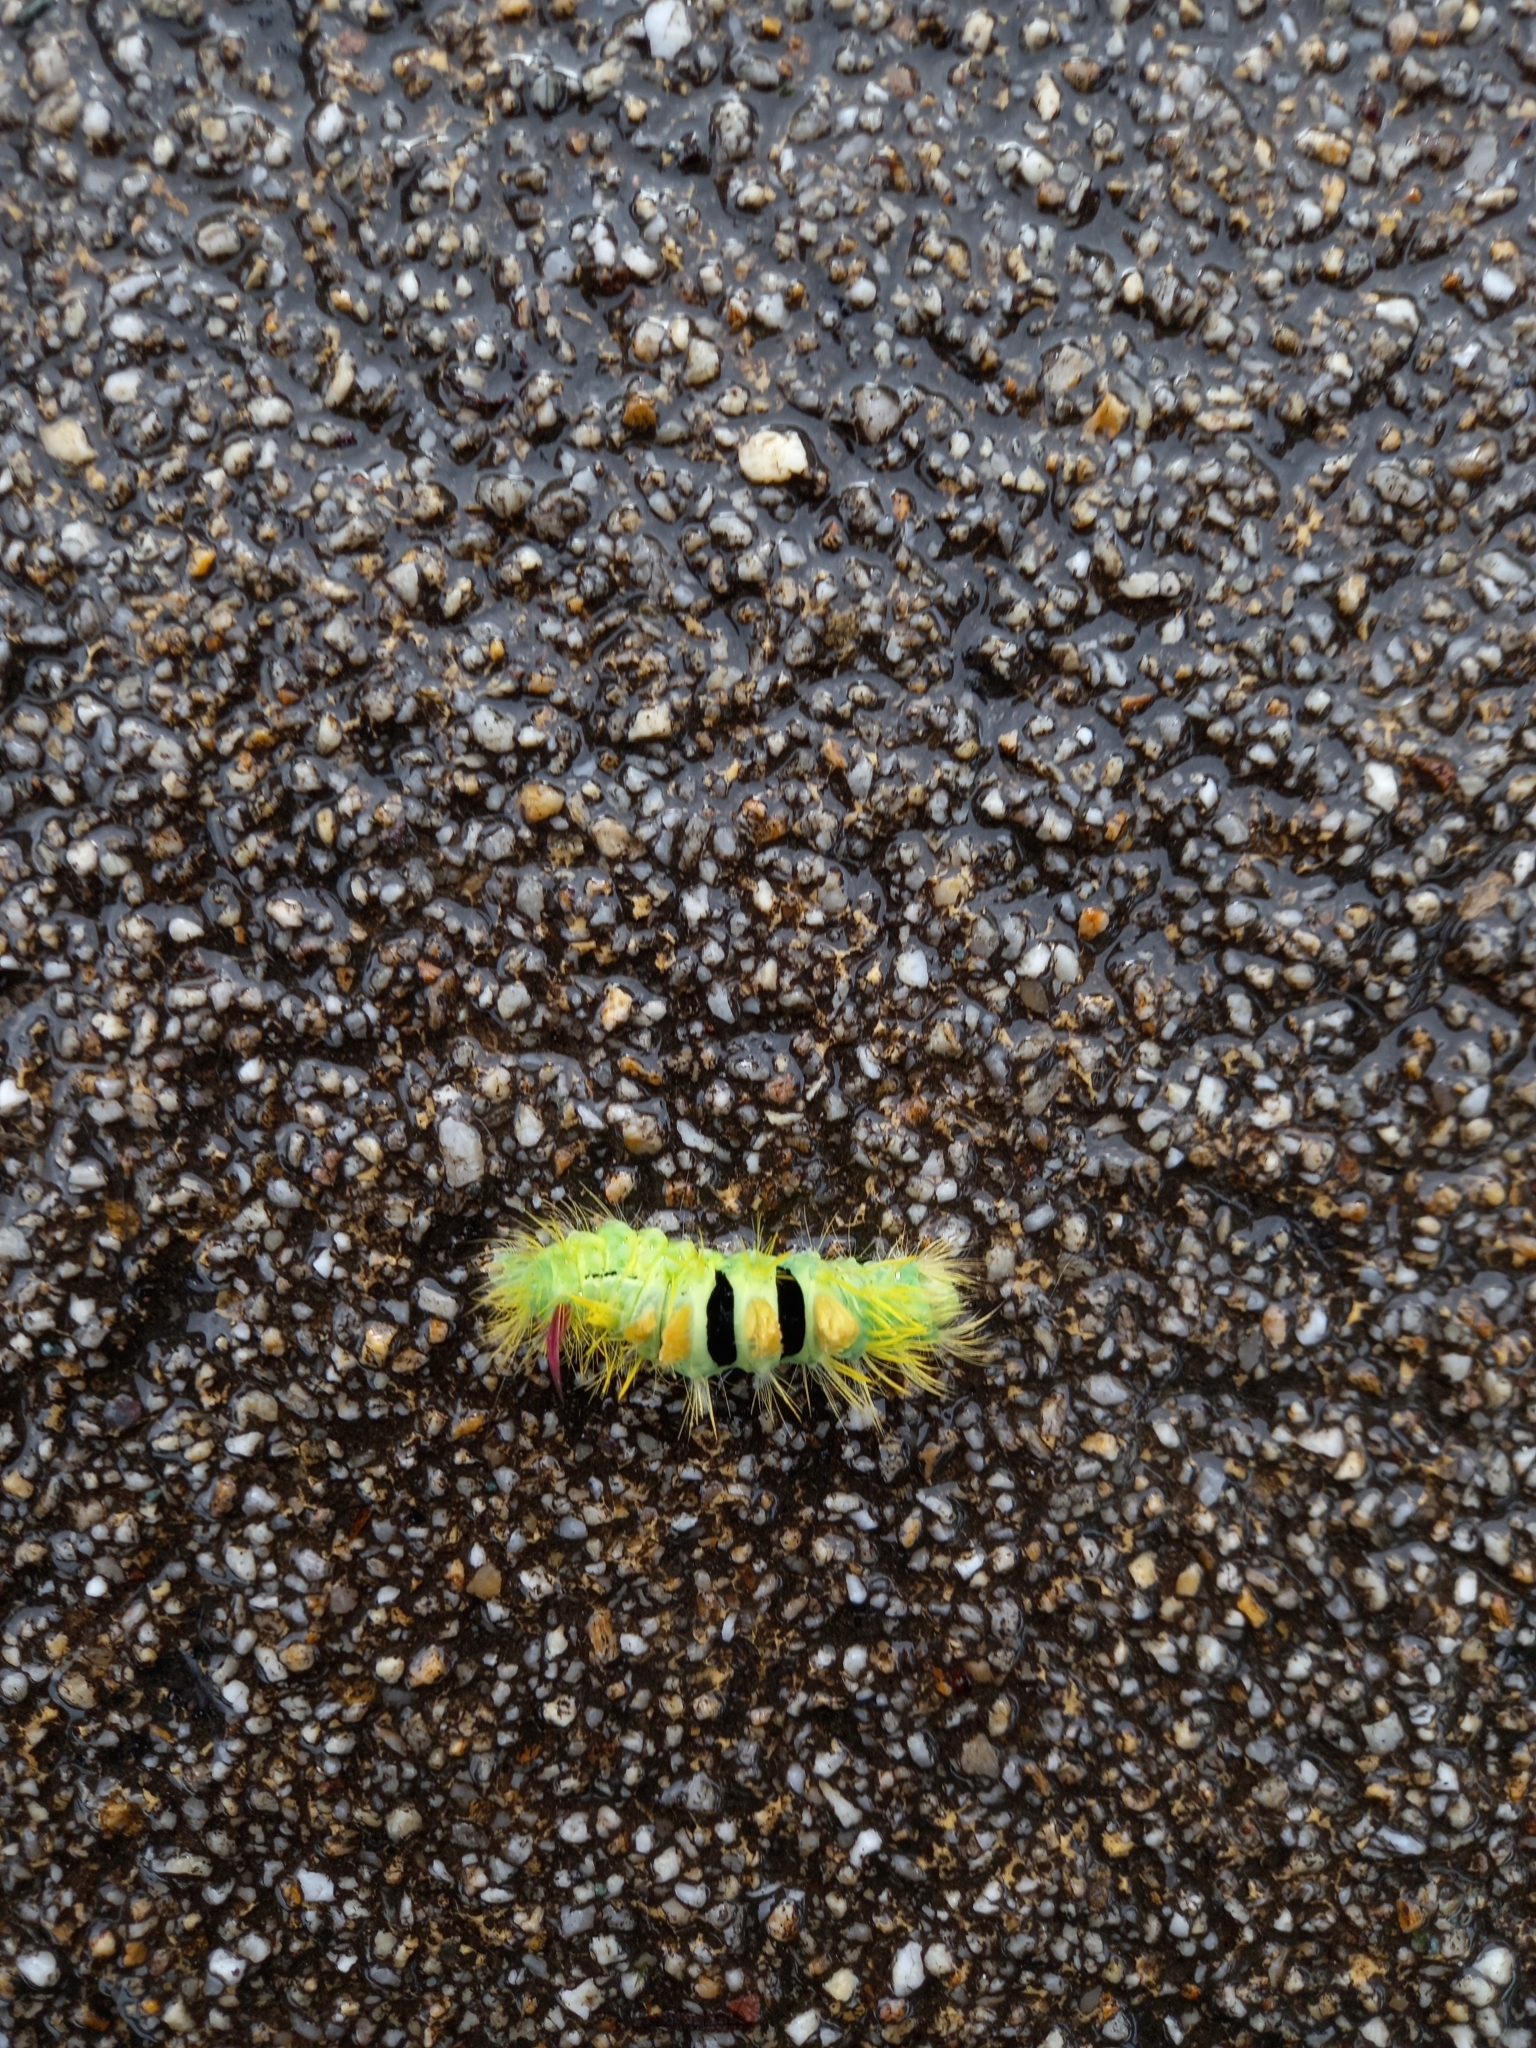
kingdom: Animalia
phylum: Arthropoda
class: Insecta
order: Lepidoptera
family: Erebidae
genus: Calliteara
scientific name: Calliteara pudibunda
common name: Pale tussock
